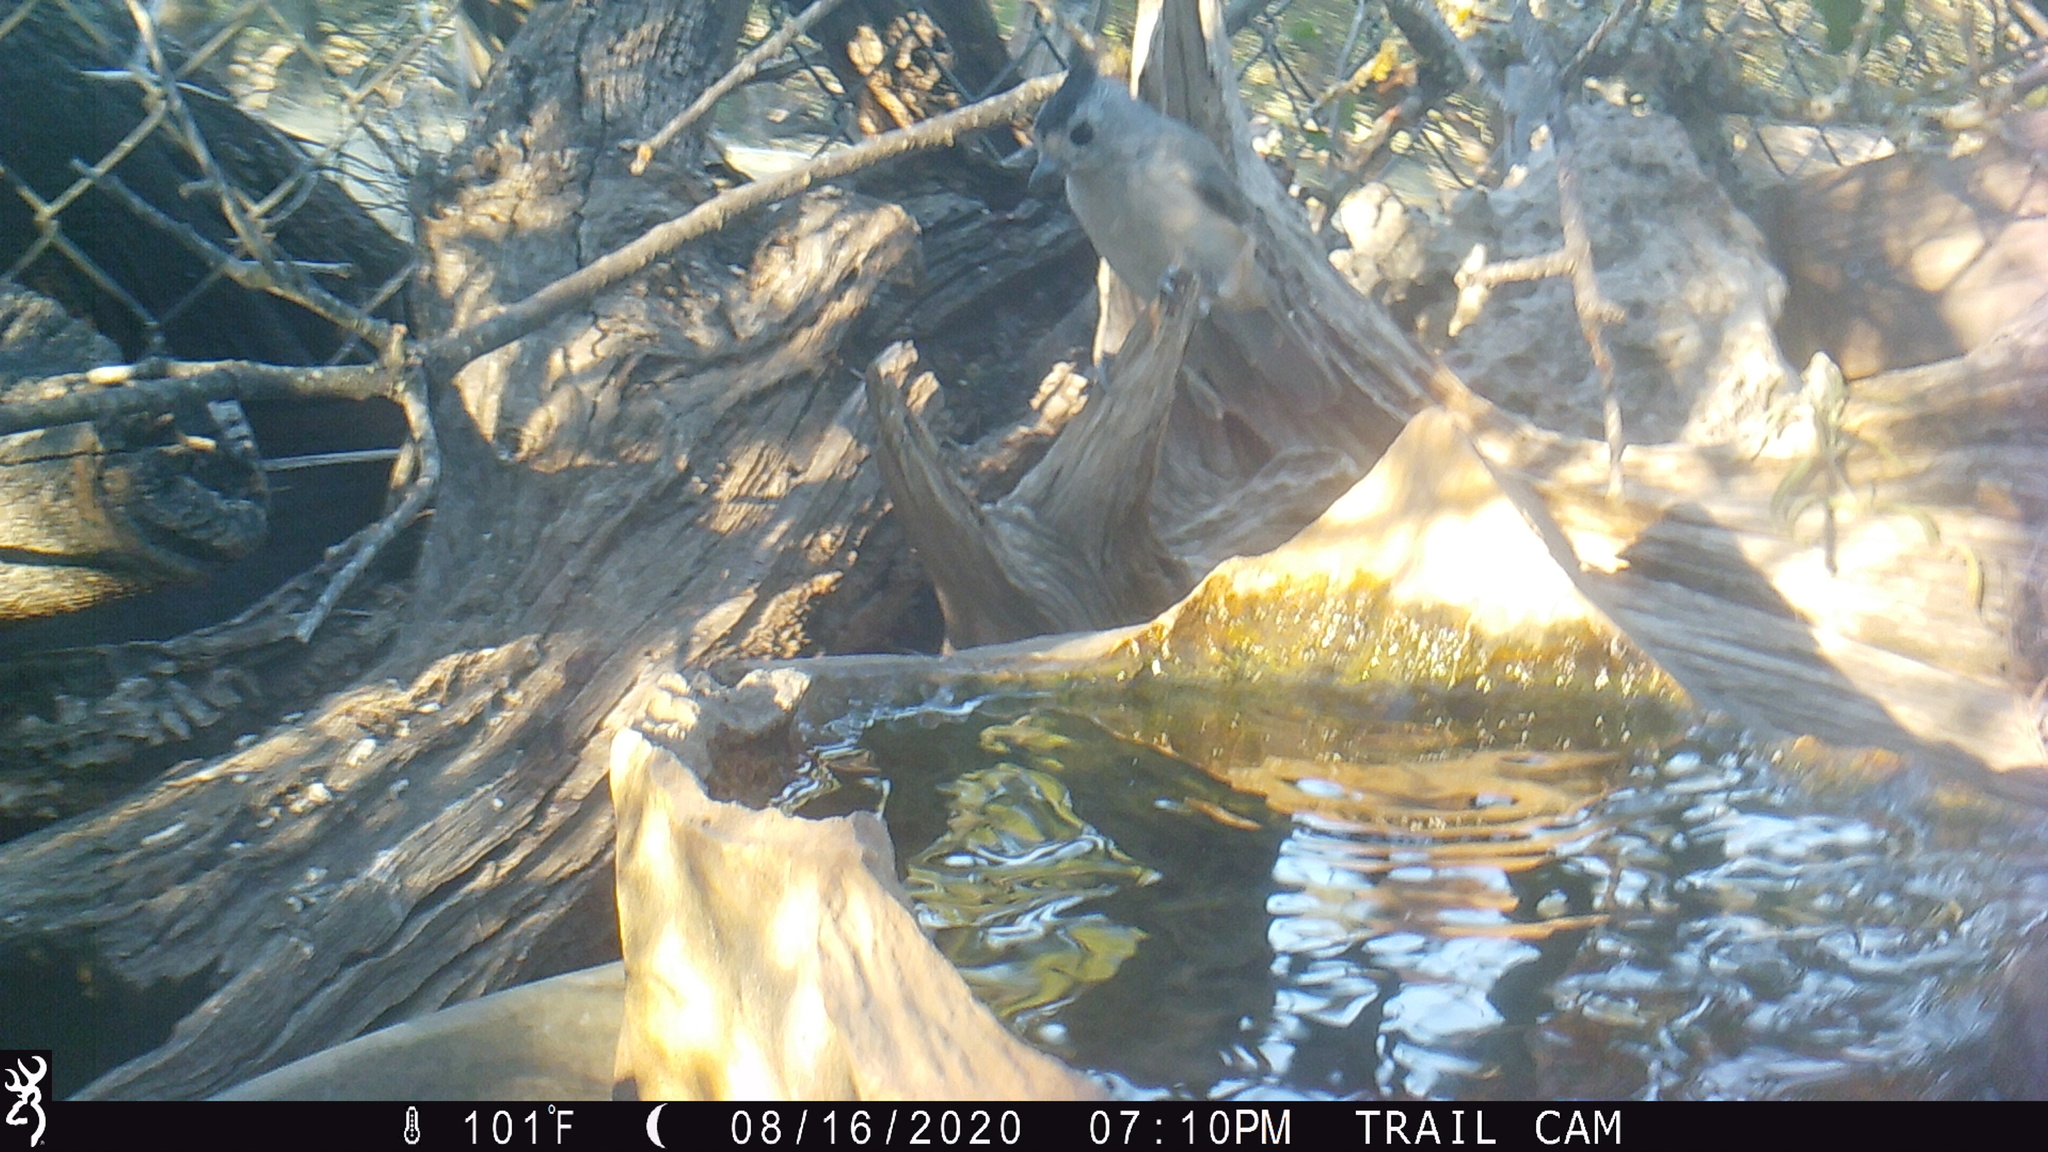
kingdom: Animalia
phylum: Chordata
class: Aves
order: Passeriformes
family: Paridae
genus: Baeolophus
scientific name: Baeolophus atricristatus
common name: Black-crested titmouse
